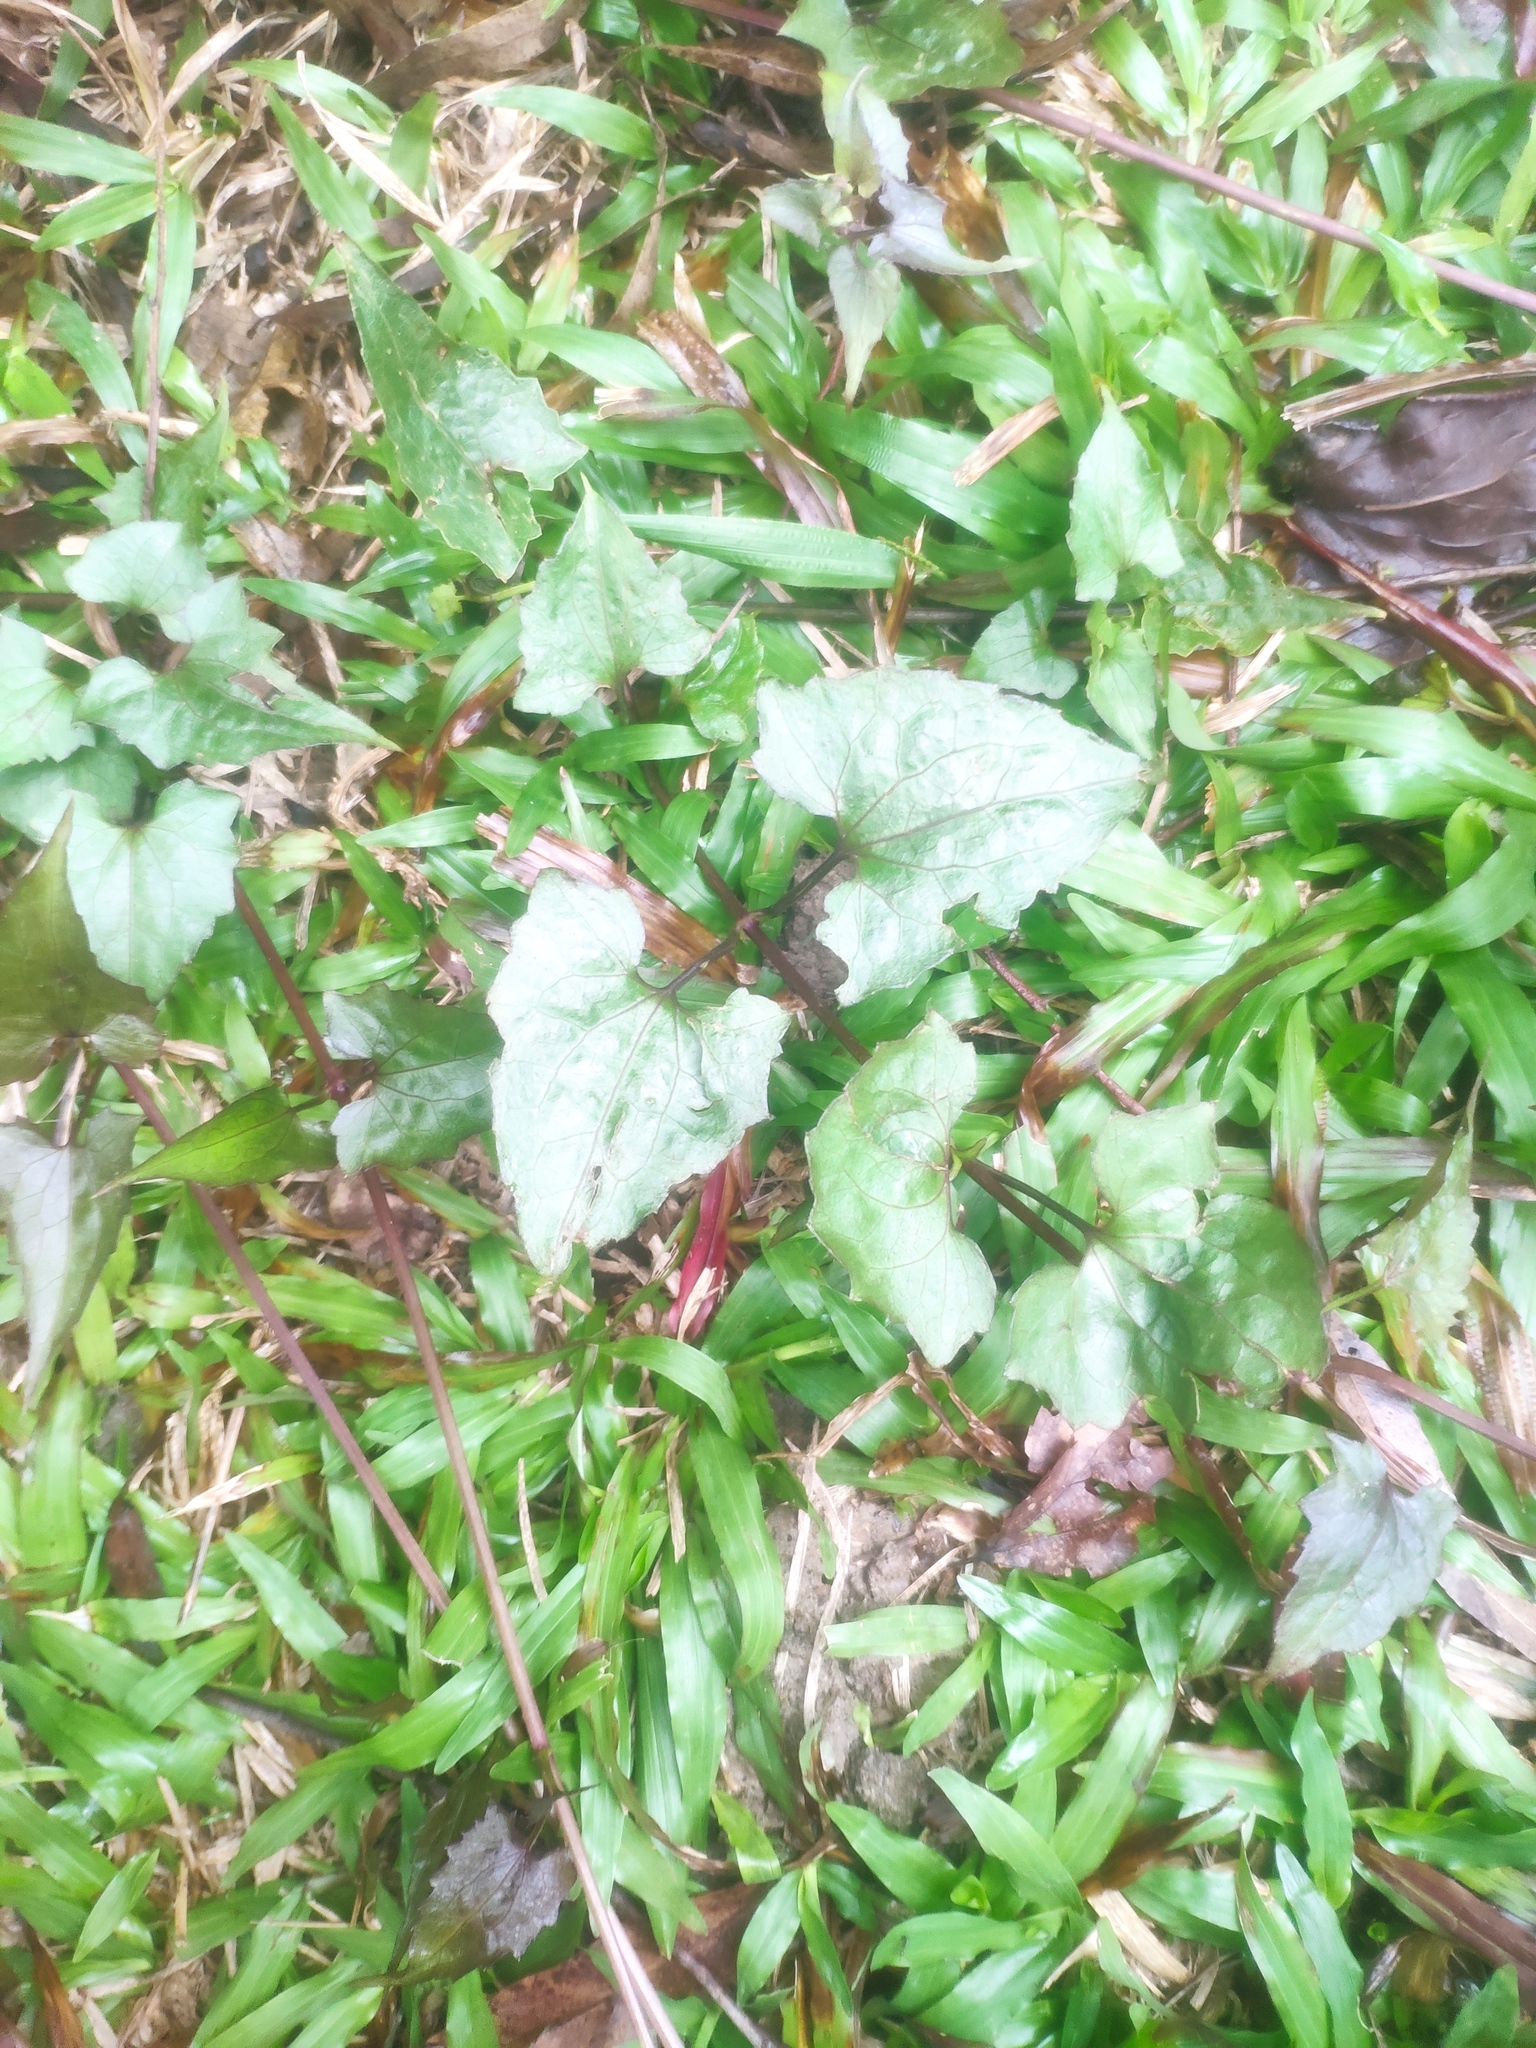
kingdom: Plantae
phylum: Tracheophyta
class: Magnoliopsida
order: Asterales
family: Asteraceae
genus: Mikania
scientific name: Mikania micrantha
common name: Mile-a-minute
